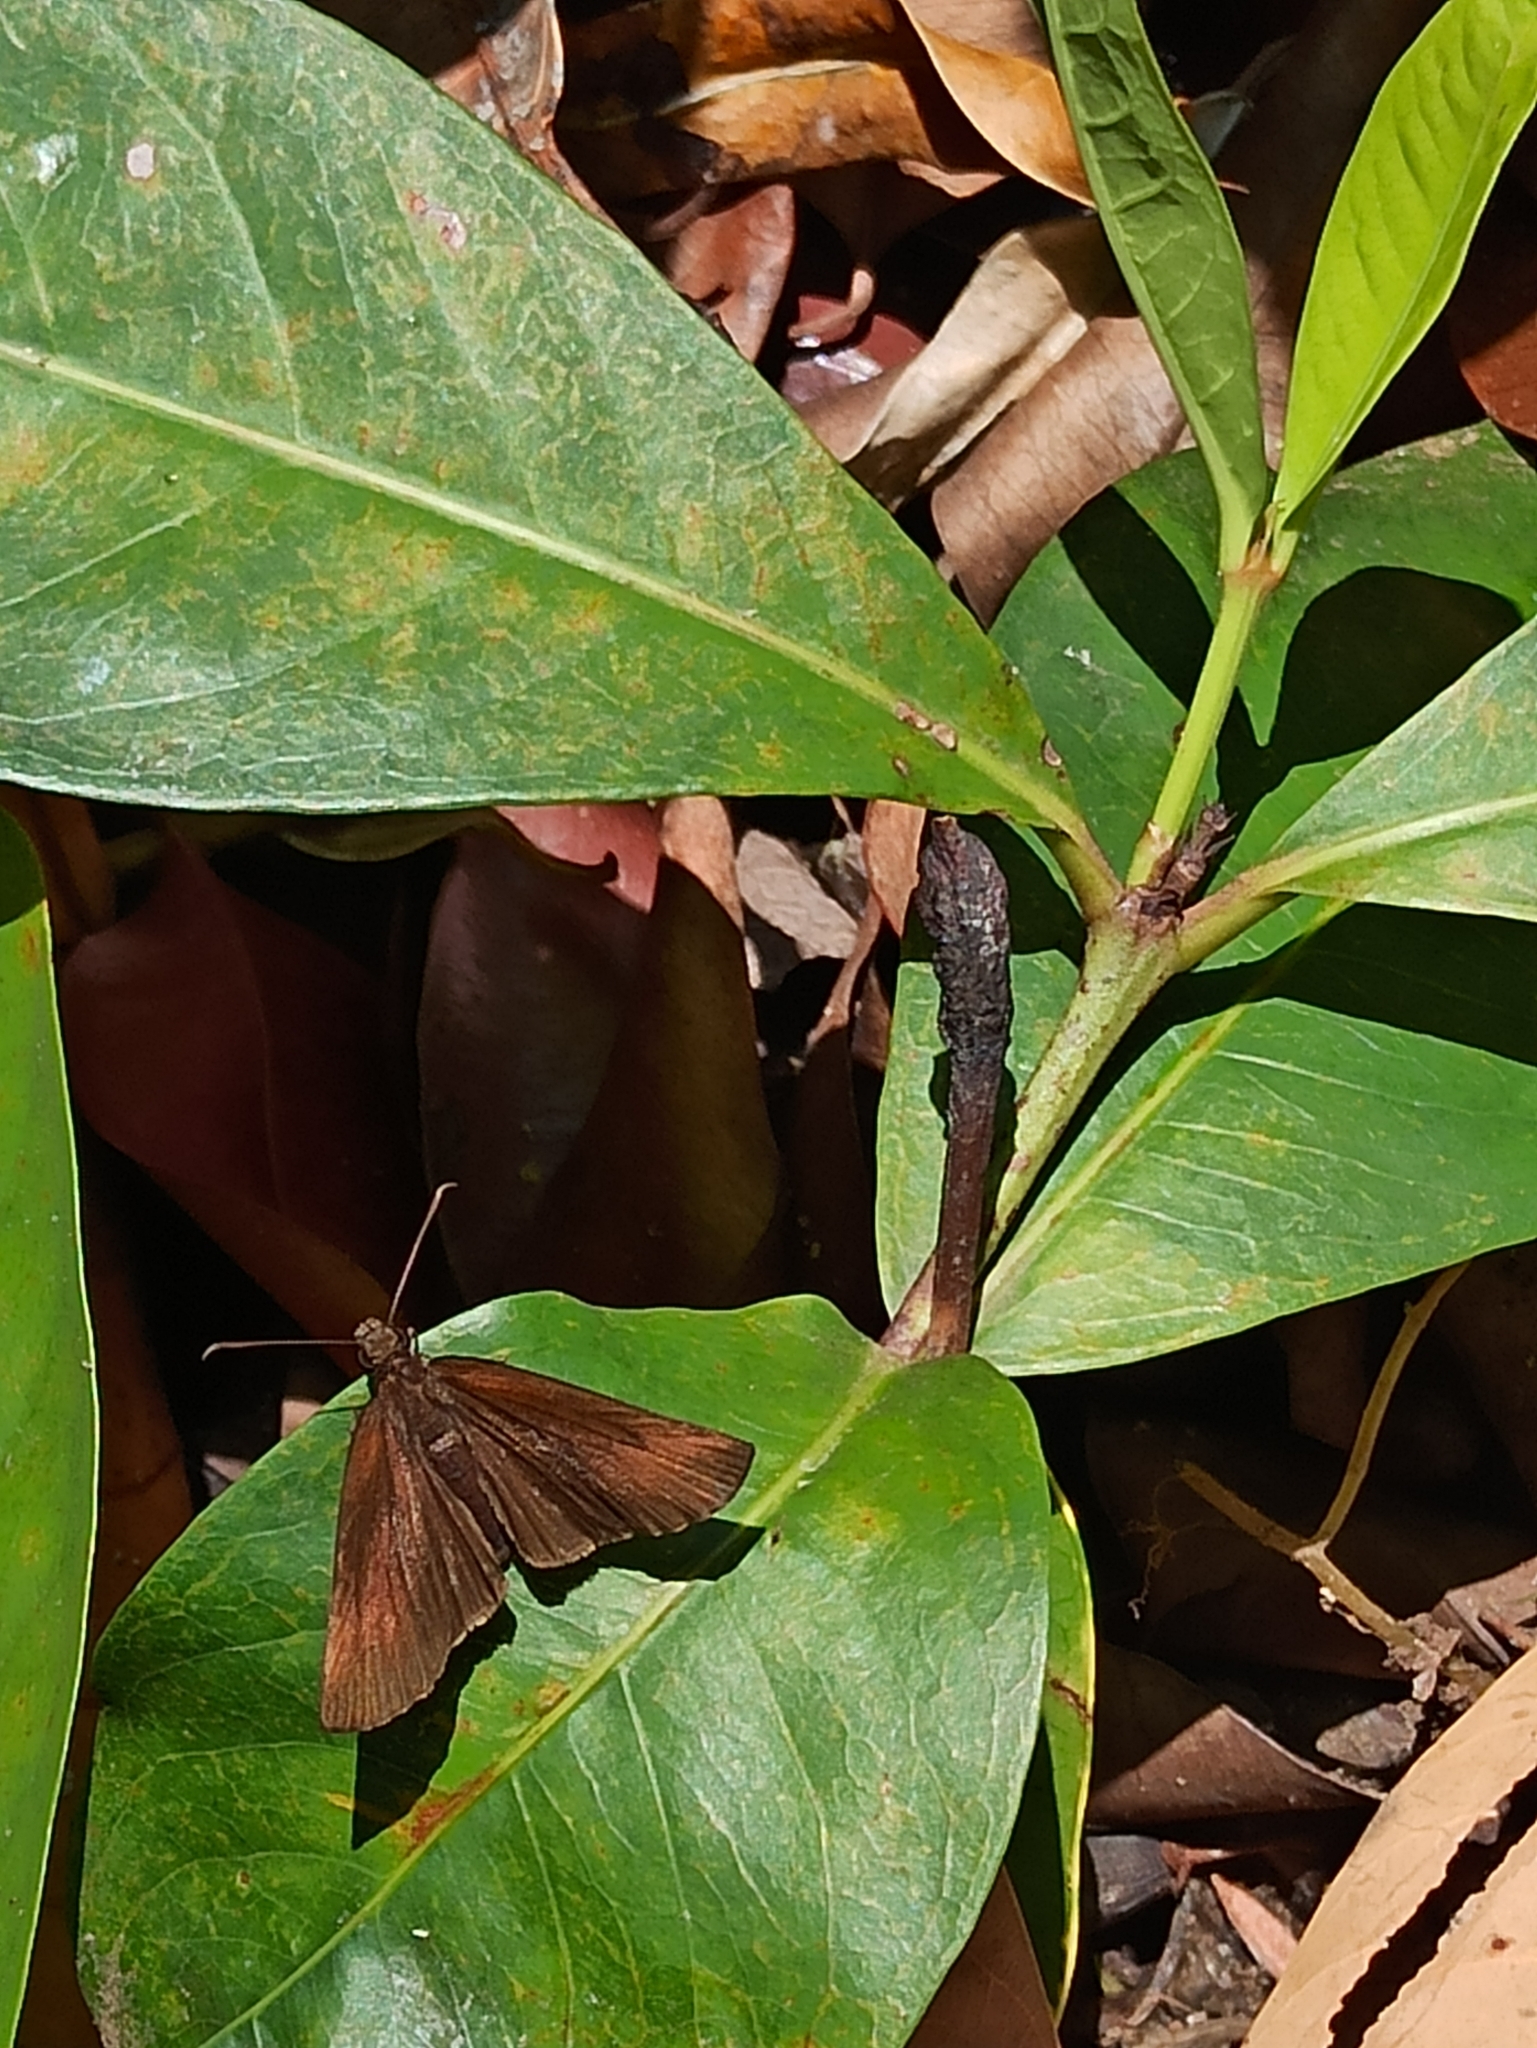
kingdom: Animalia
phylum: Arthropoda
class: Insecta
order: Lepidoptera
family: Hesperiidae
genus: Psolos
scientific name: Psolos fuligo
